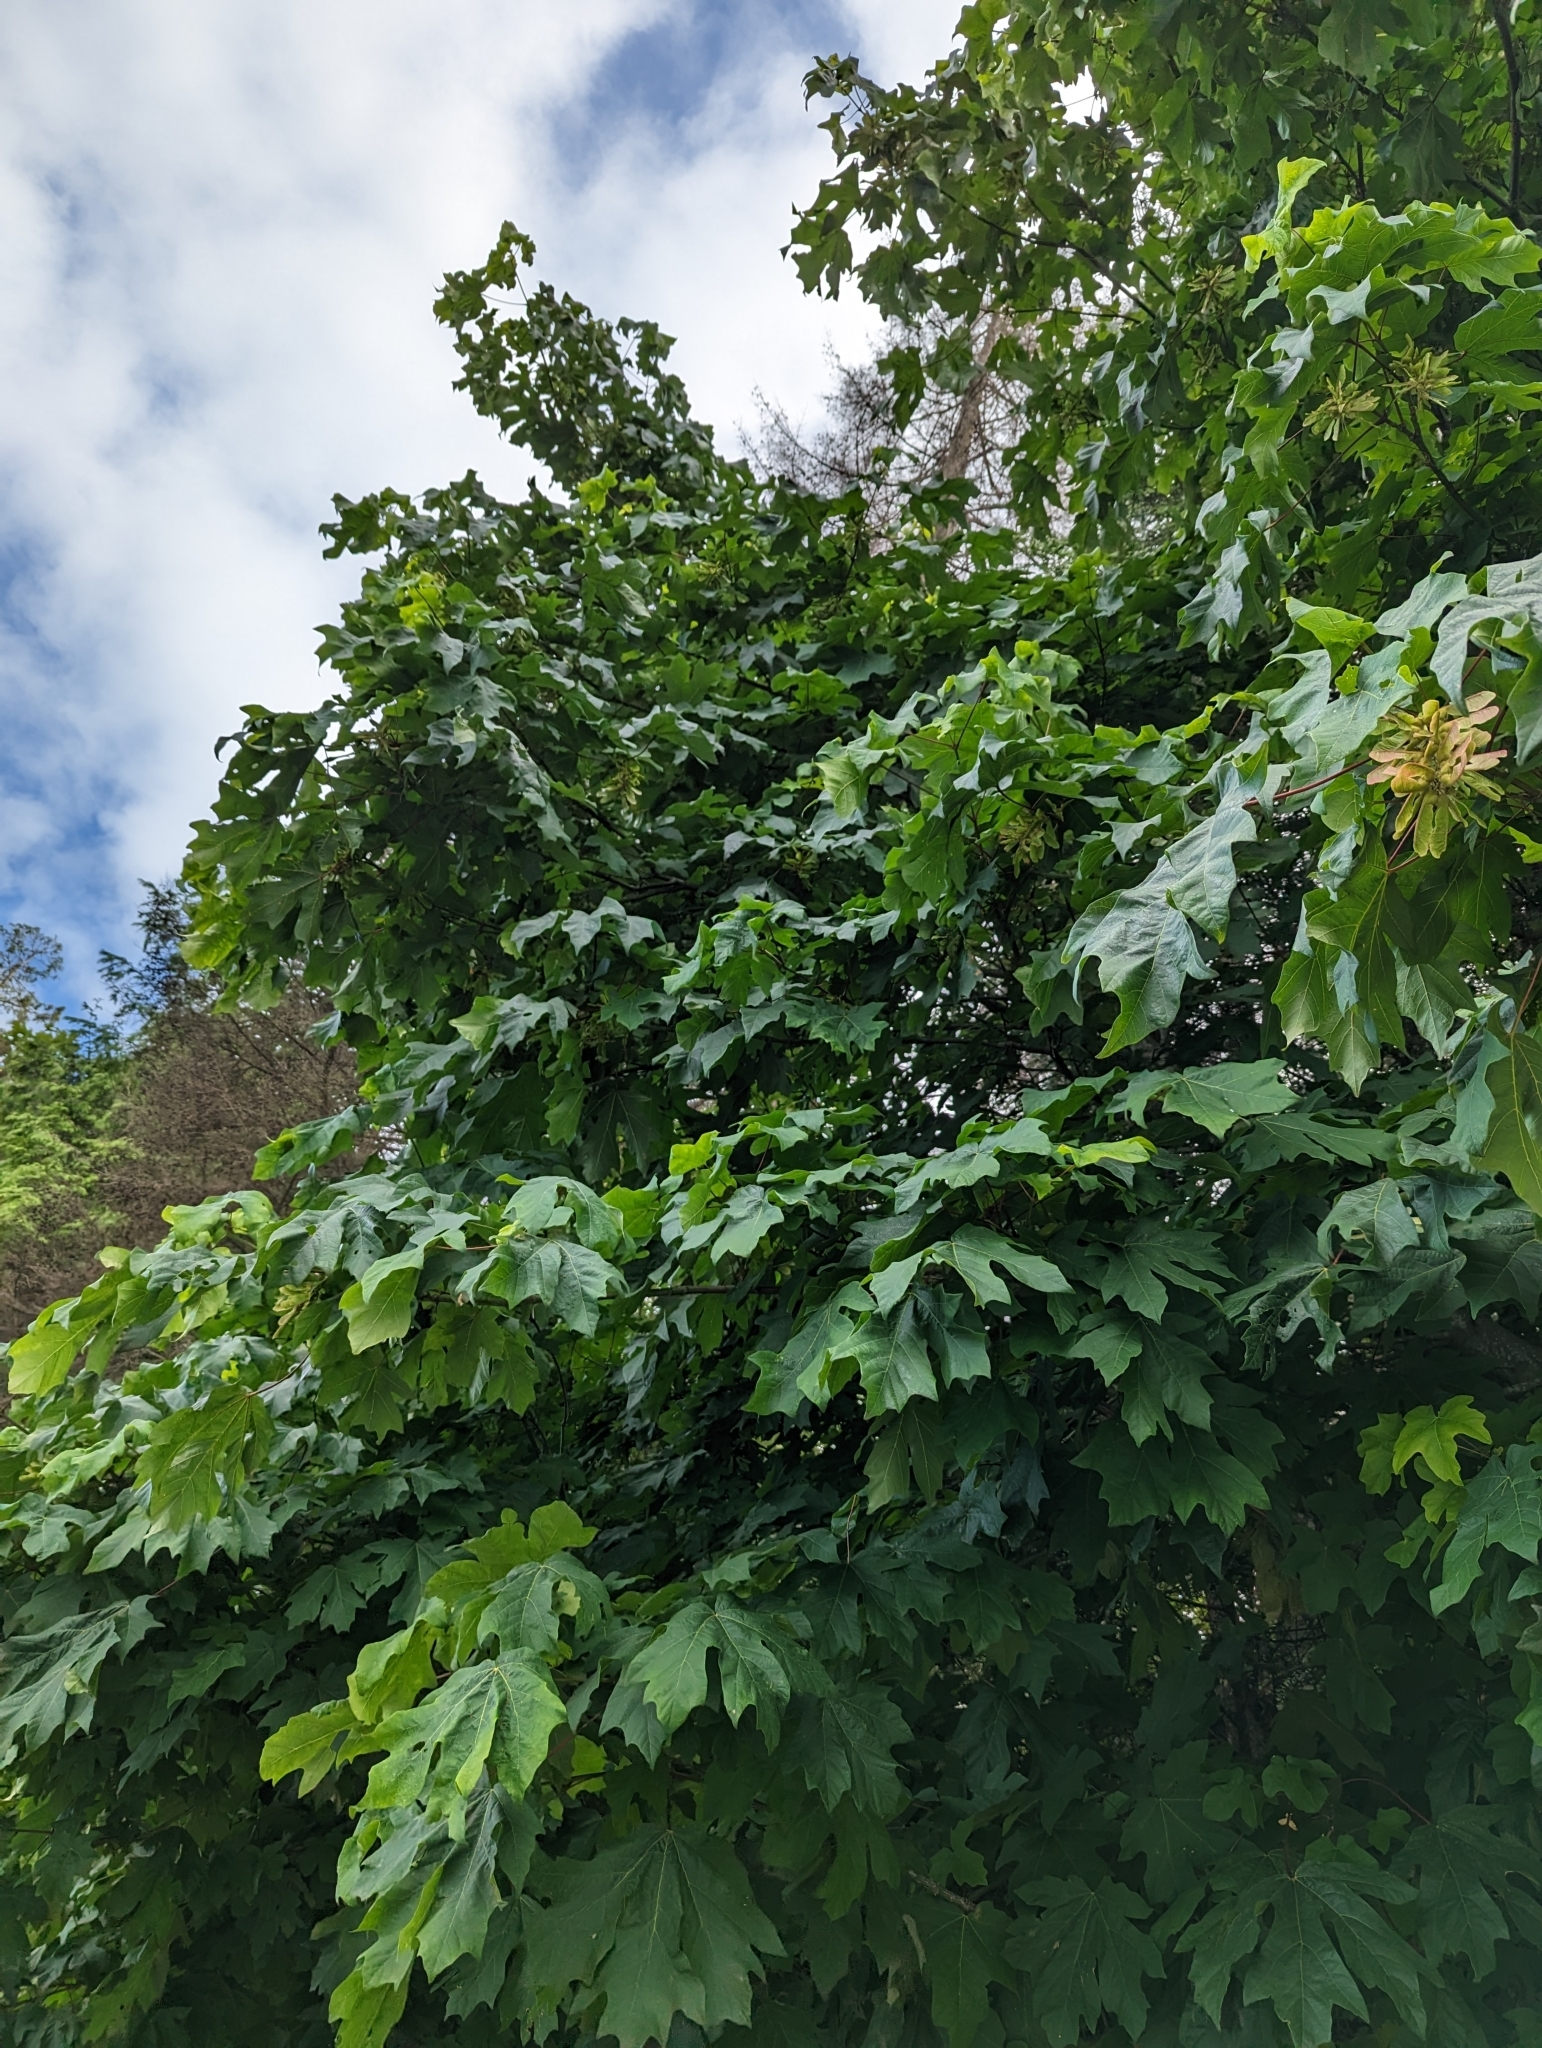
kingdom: Plantae
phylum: Tracheophyta
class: Magnoliopsida
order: Sapindales
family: Sapindaceae
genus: Acer
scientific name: Acer macrophyllum
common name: Oregon maple
